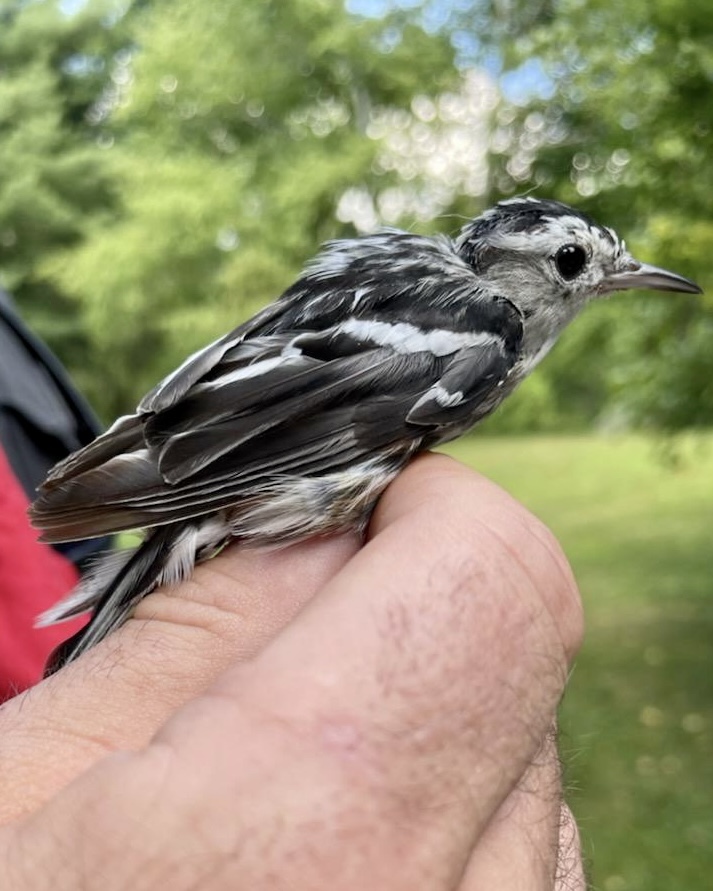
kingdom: Animalia
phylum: Chordata
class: Aves
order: Passeriformes
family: Parulidae
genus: Mniotilta
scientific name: Mniotilta varia
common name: Black-and-white warbler
